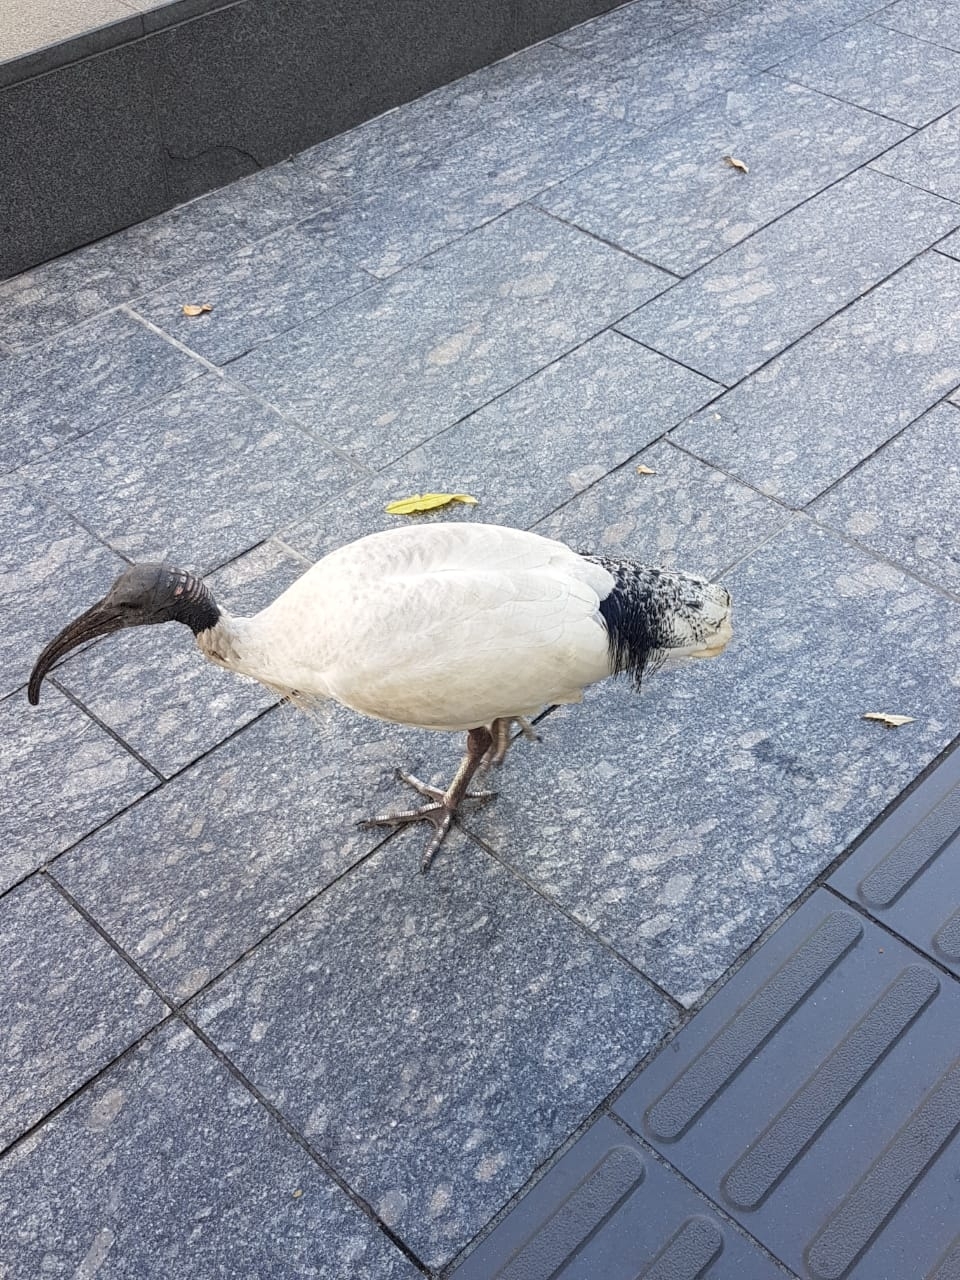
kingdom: Animalia
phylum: Chordata
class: Aves
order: Pelecaniformes
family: Threskiornithidae
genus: Threskiornis
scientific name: Threskiornis molucca
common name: Australian white ibis
